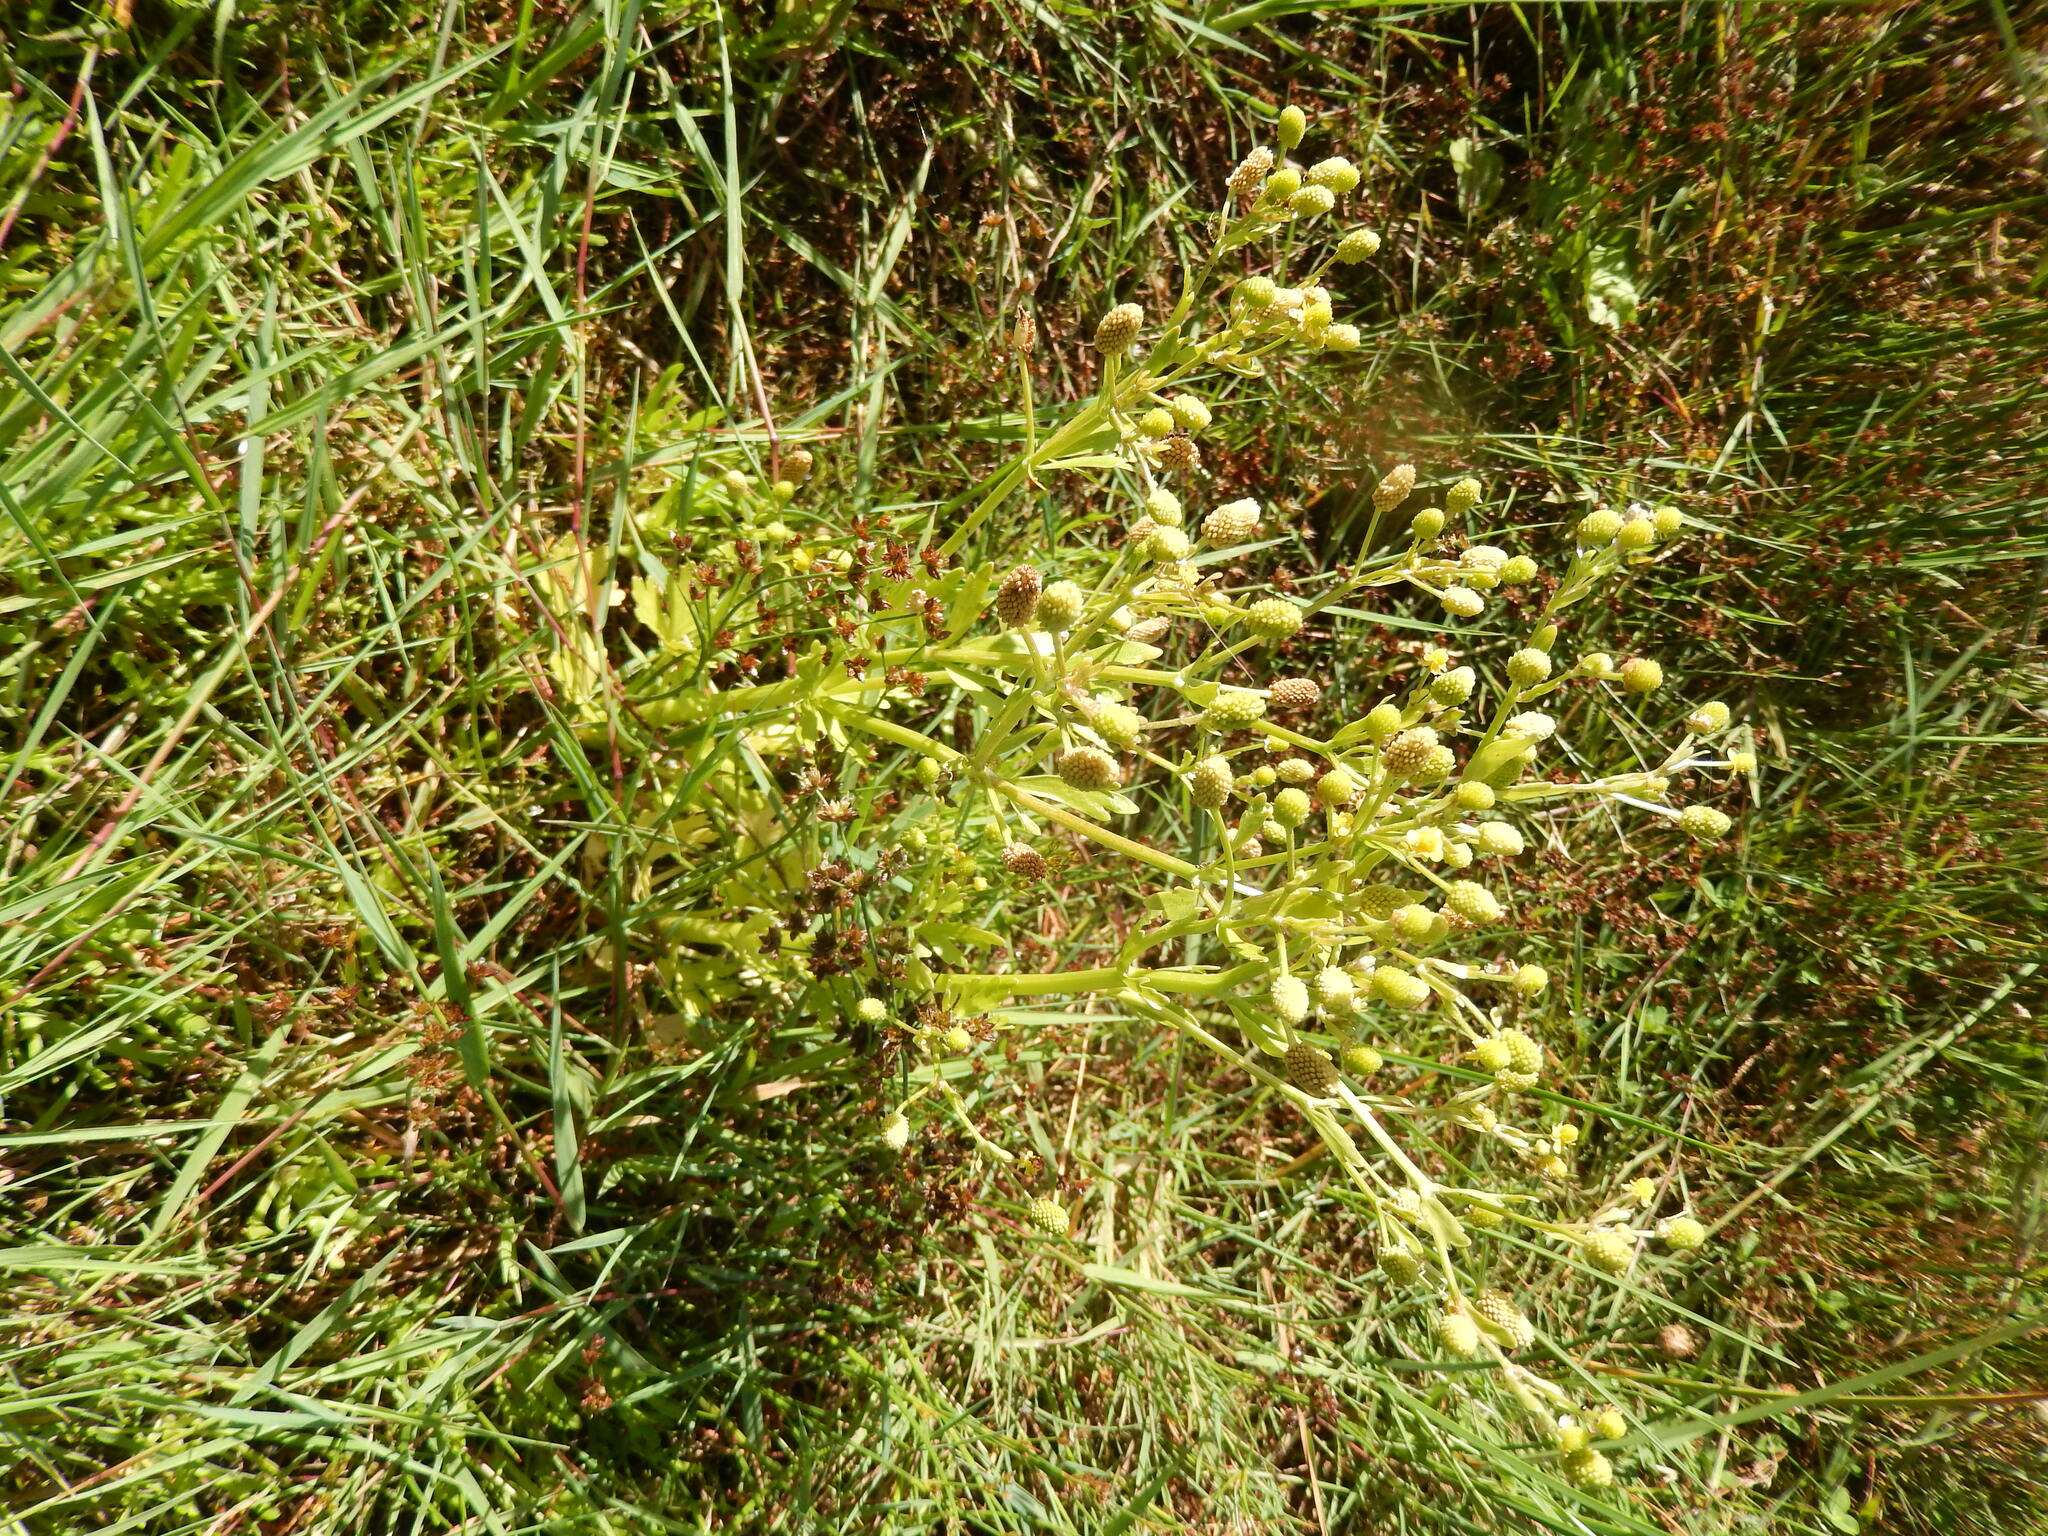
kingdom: Plantae
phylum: Tracheophyta
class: Magnoliopsida
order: Ranunculales
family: Ranunculaceae
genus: Ranunculus
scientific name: Ranunculus sceleratus
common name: Celery-leaved buttercup
